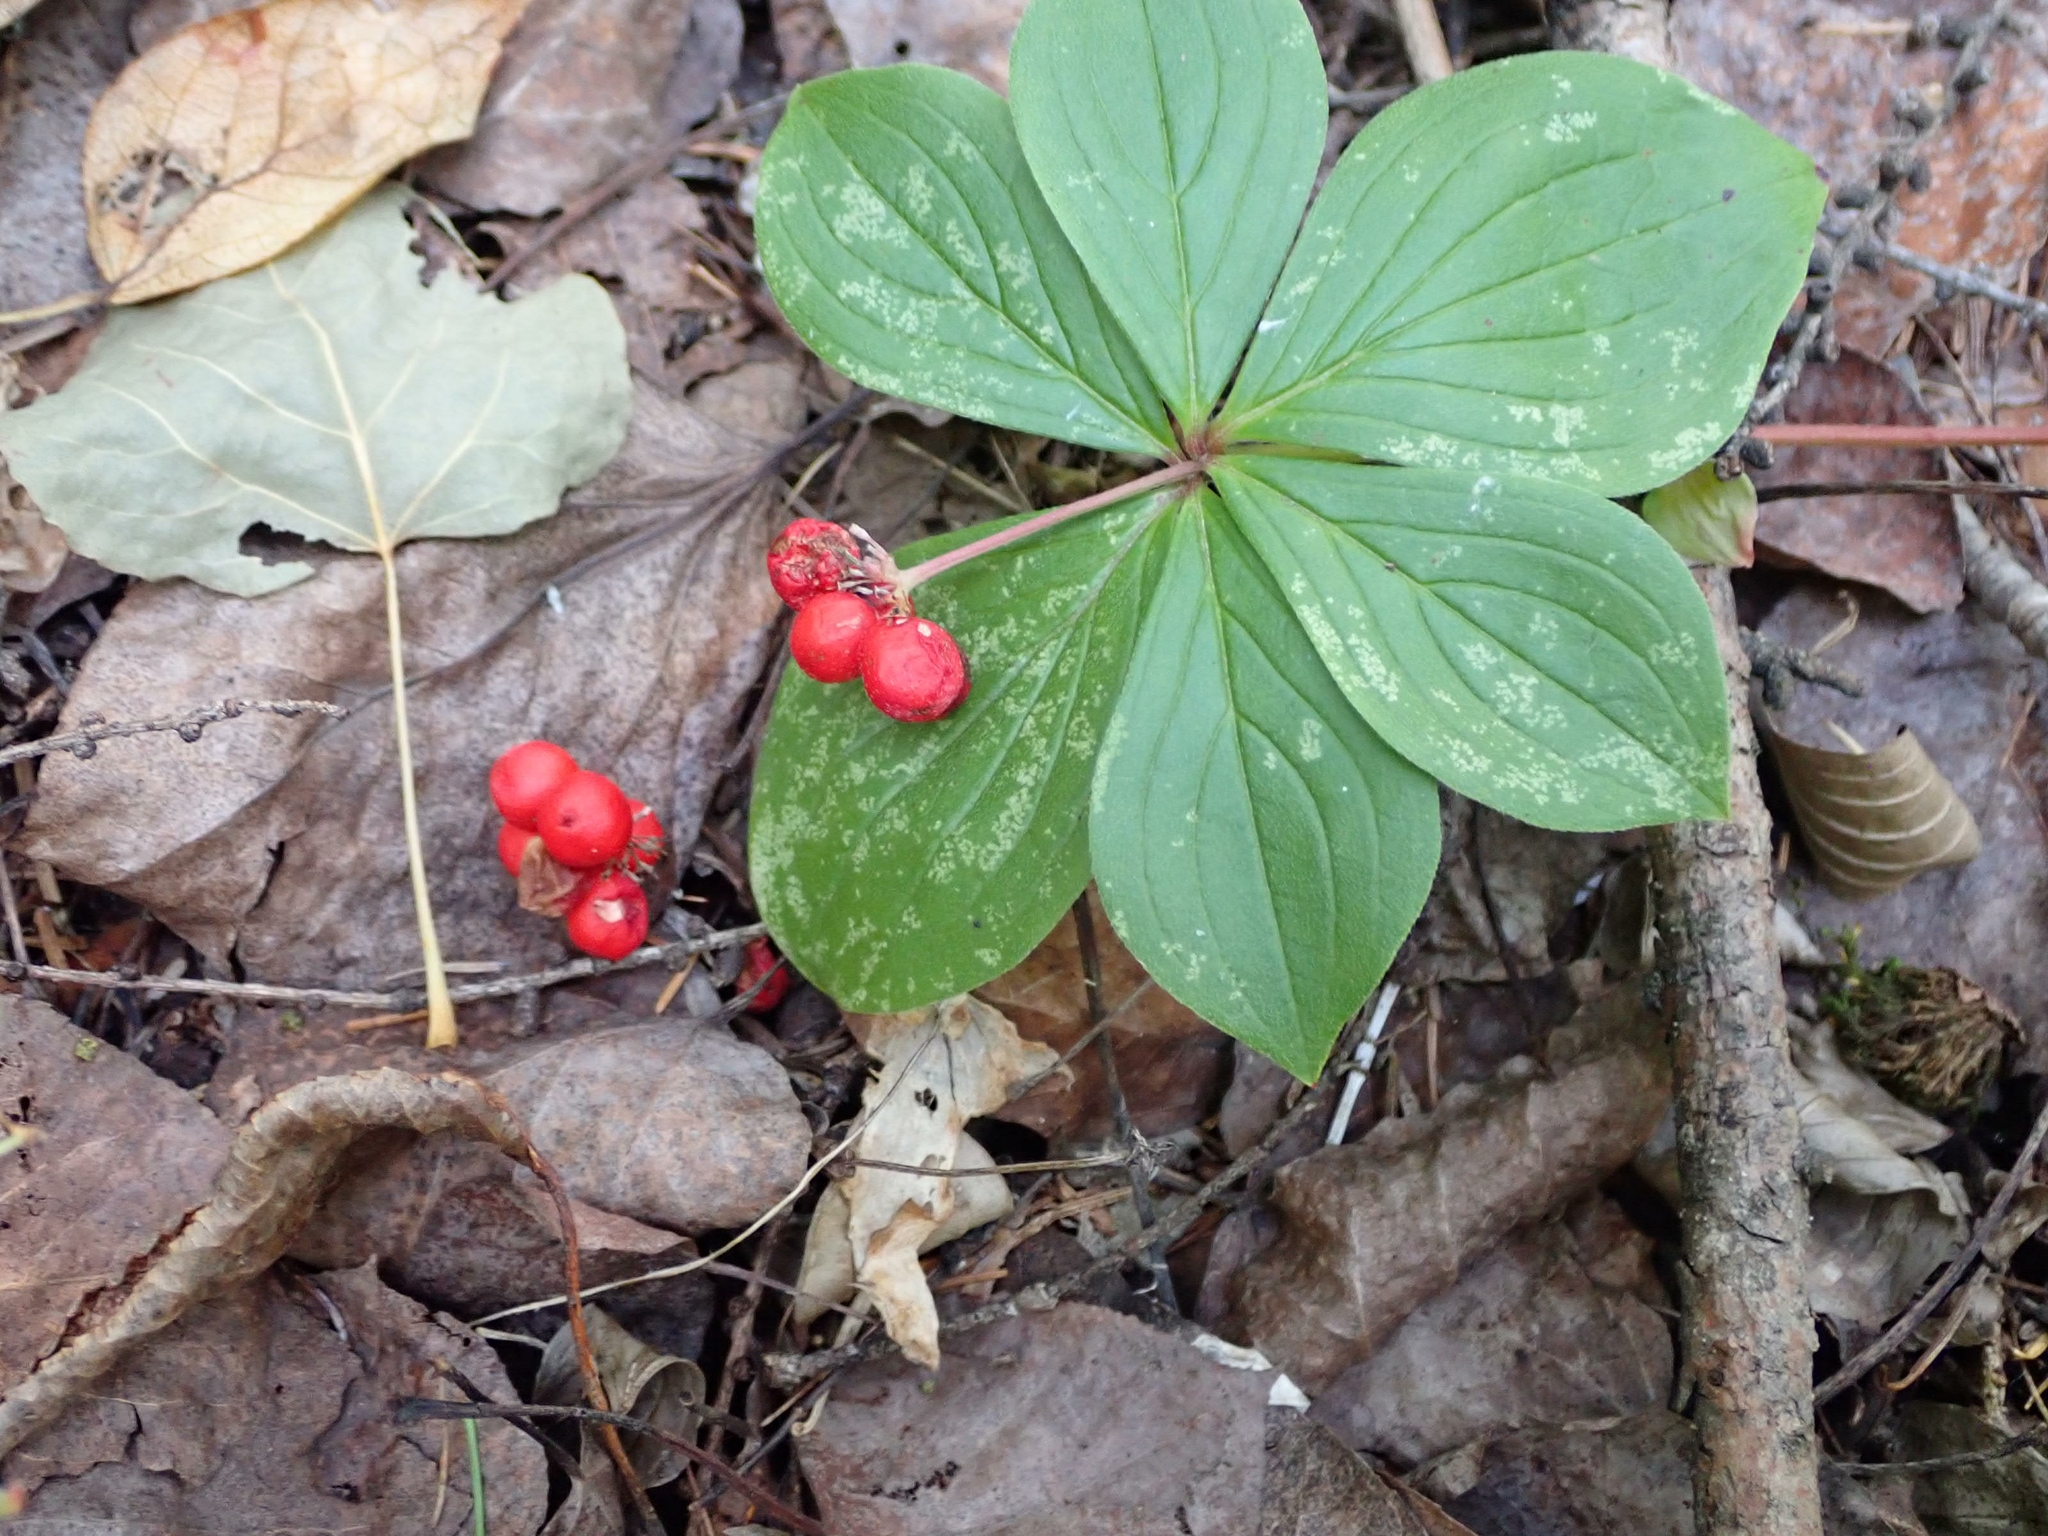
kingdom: Plantae
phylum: Tracheophyta
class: Magnoliopsida
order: Cornales
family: Cornaceae
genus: Cornus
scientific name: Cornus canadensis
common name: Creeping dogwood
